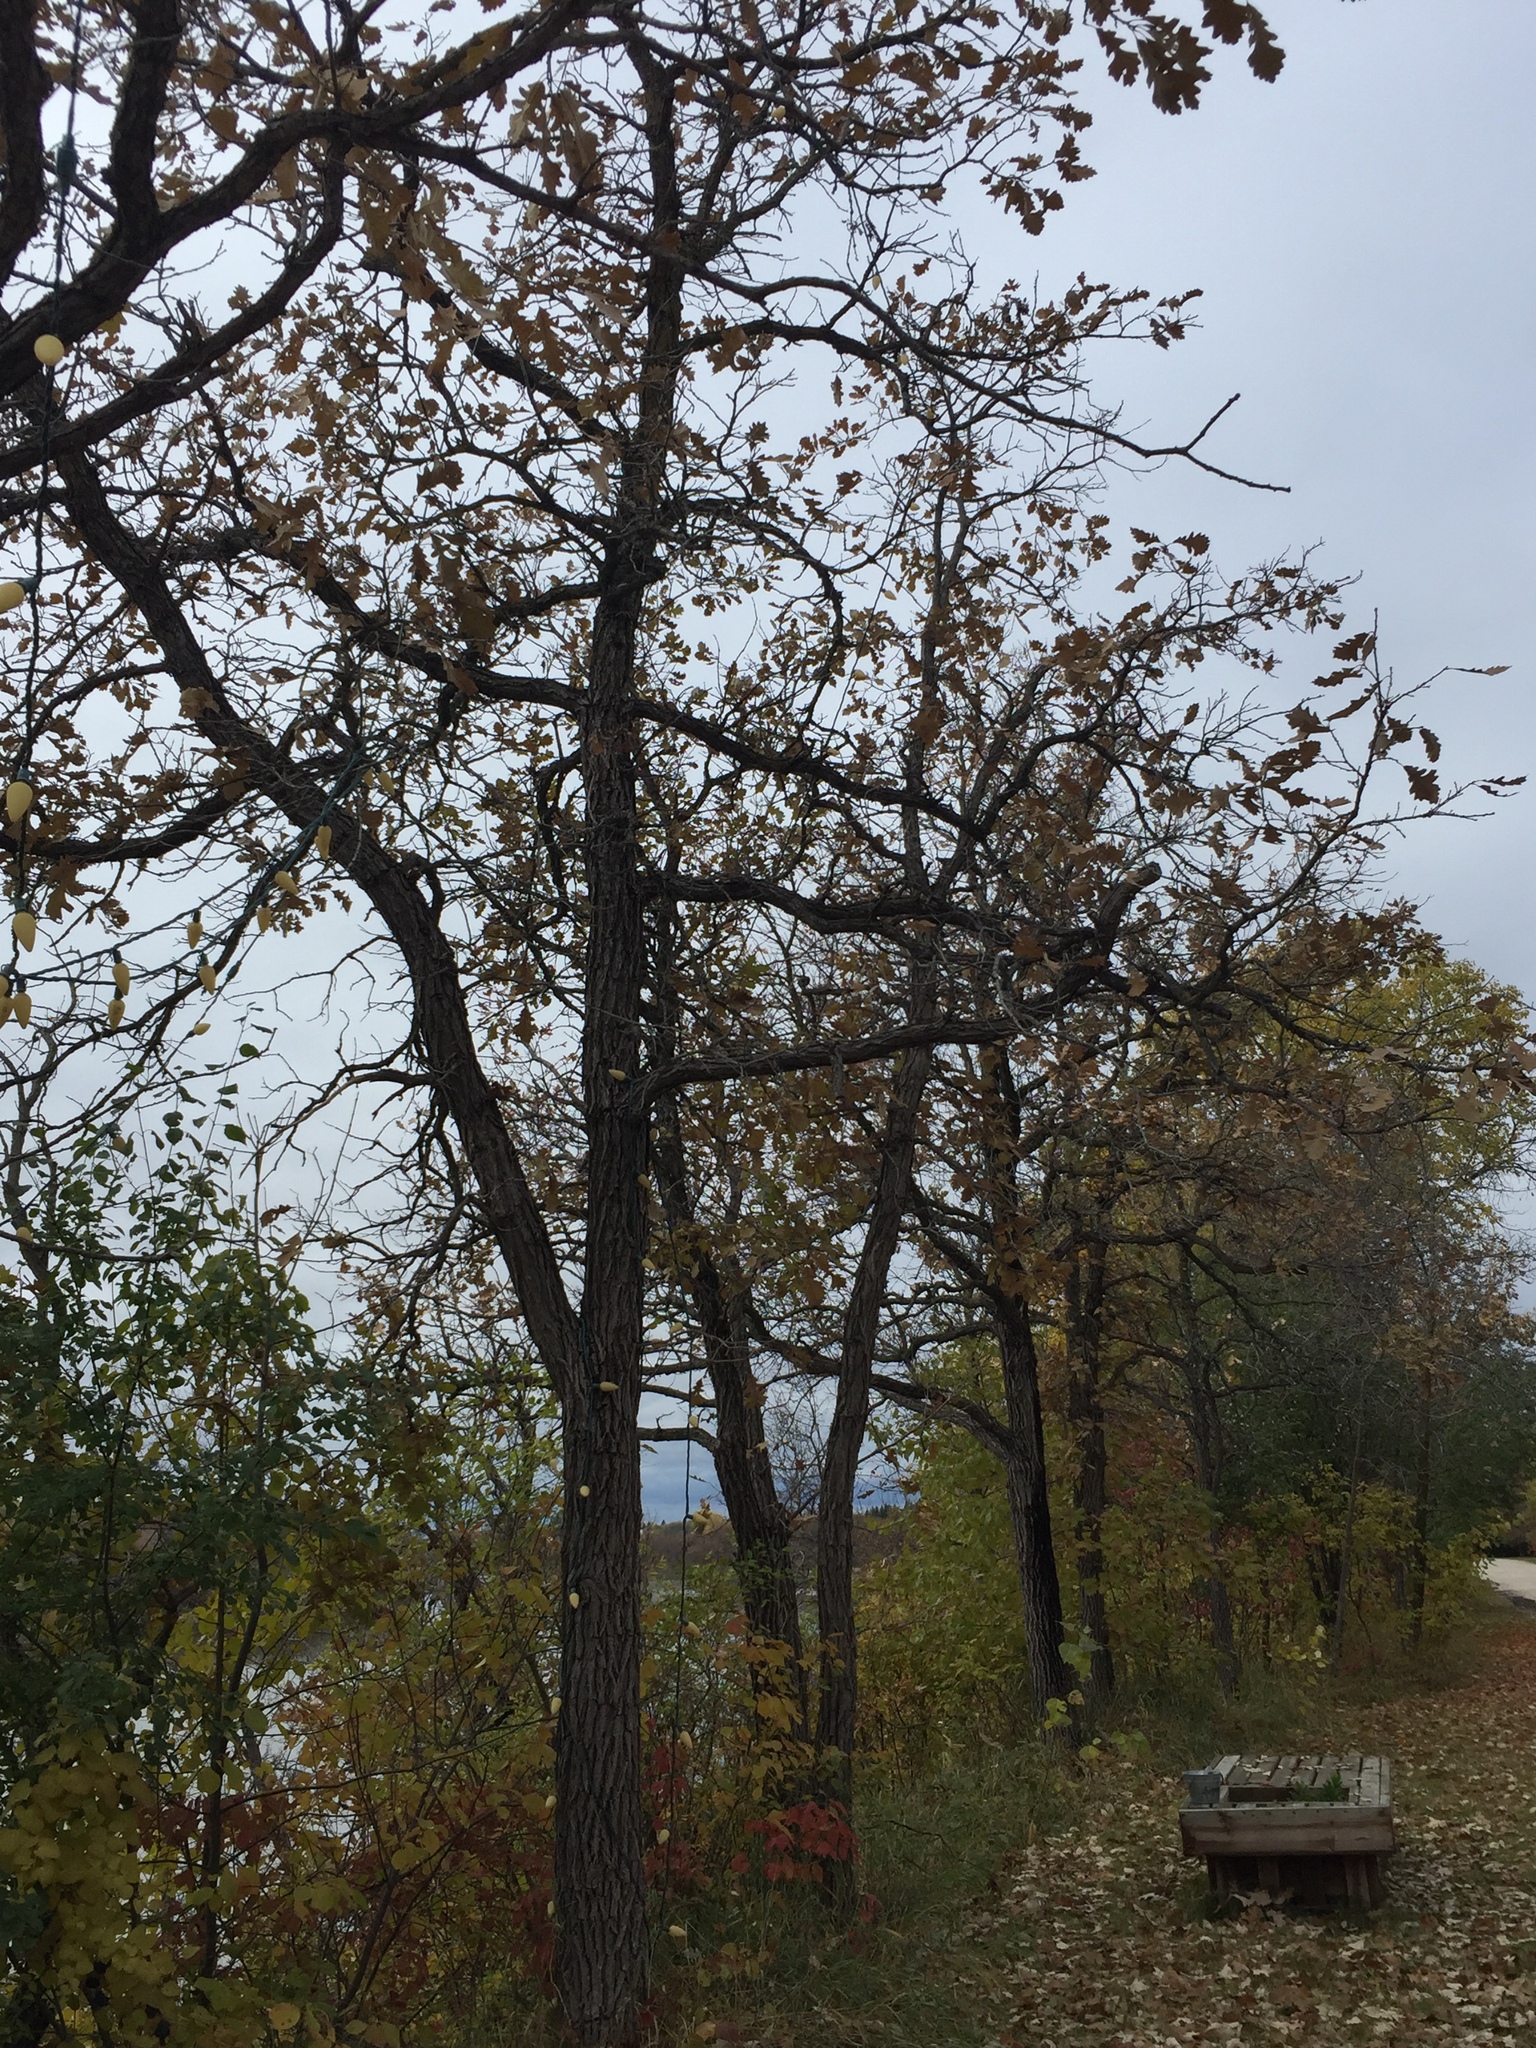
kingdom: Plantae
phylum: Tracheophyta
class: Magnoliopsida
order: Fagales
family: Fagaceae
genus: Quercus
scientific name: Quercus macrocarpa
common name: Bur oak
